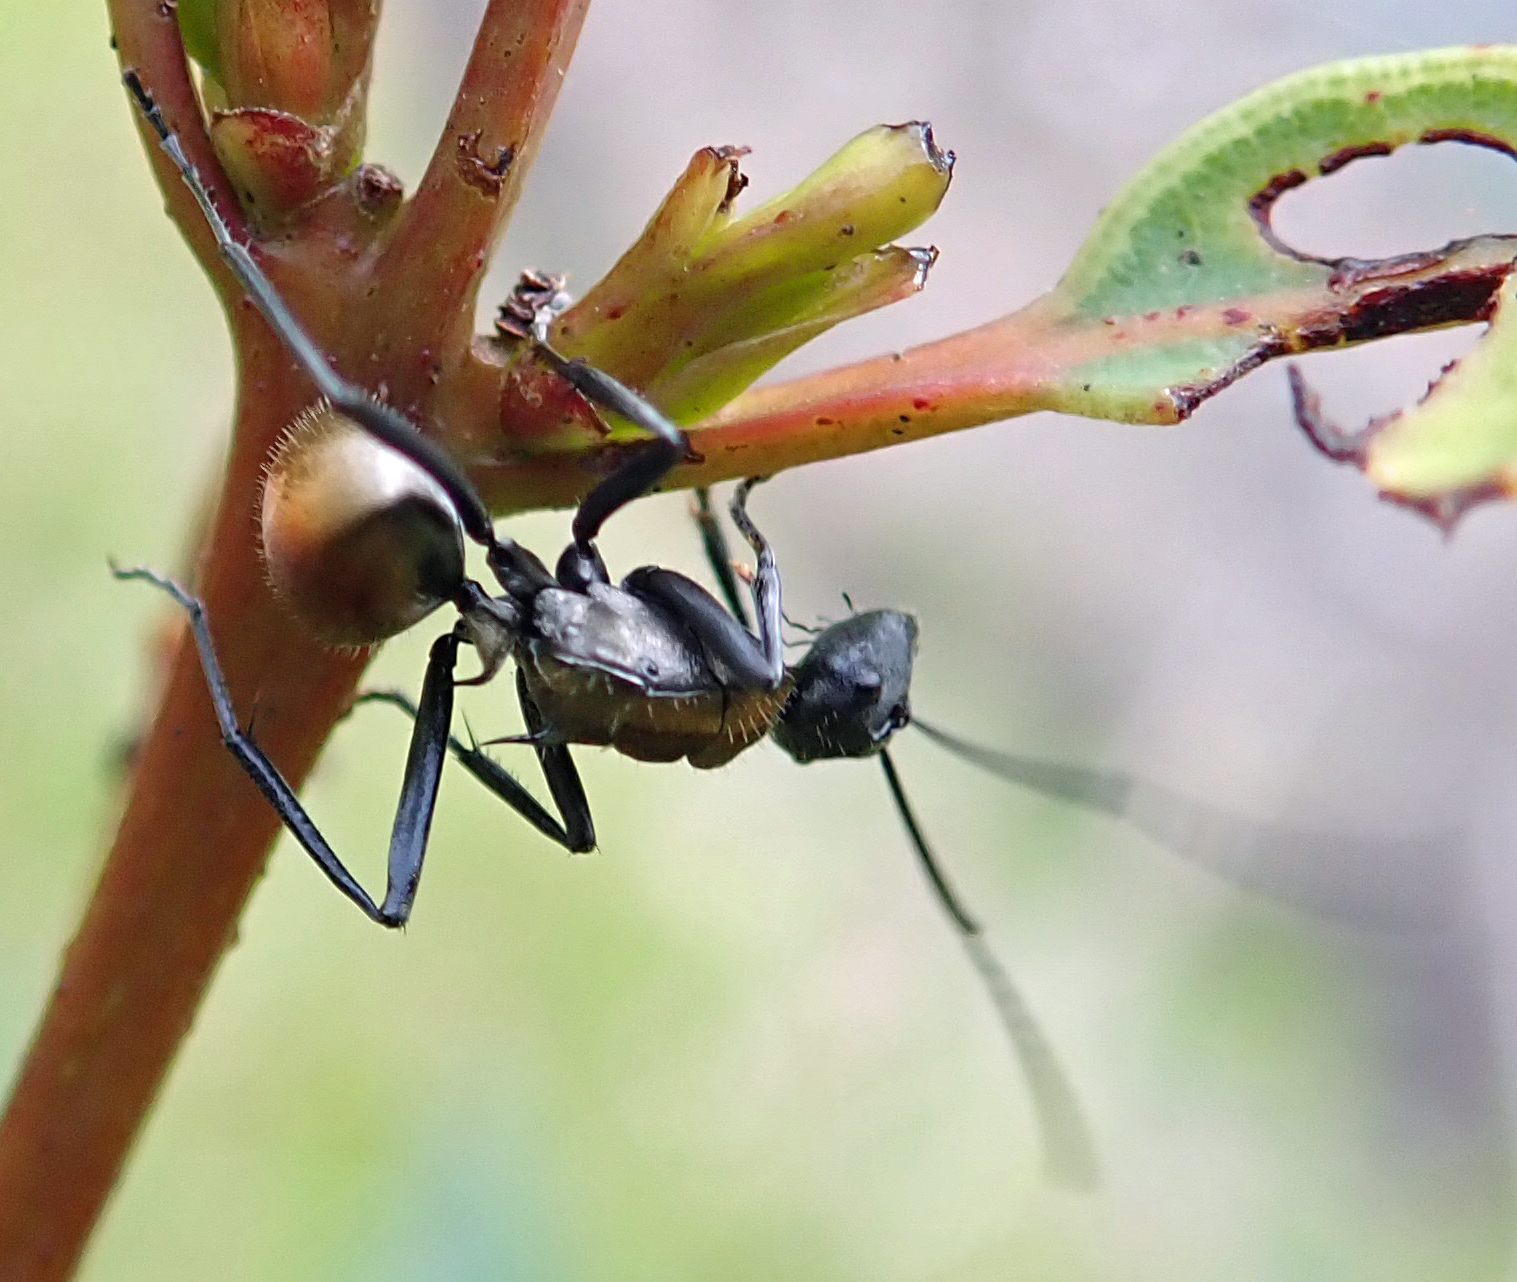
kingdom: Animalia
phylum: Arthropoda
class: Insecta
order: Hymenoptera
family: Formicidae
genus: Polyrhachis
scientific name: Polyrhachis ammon
